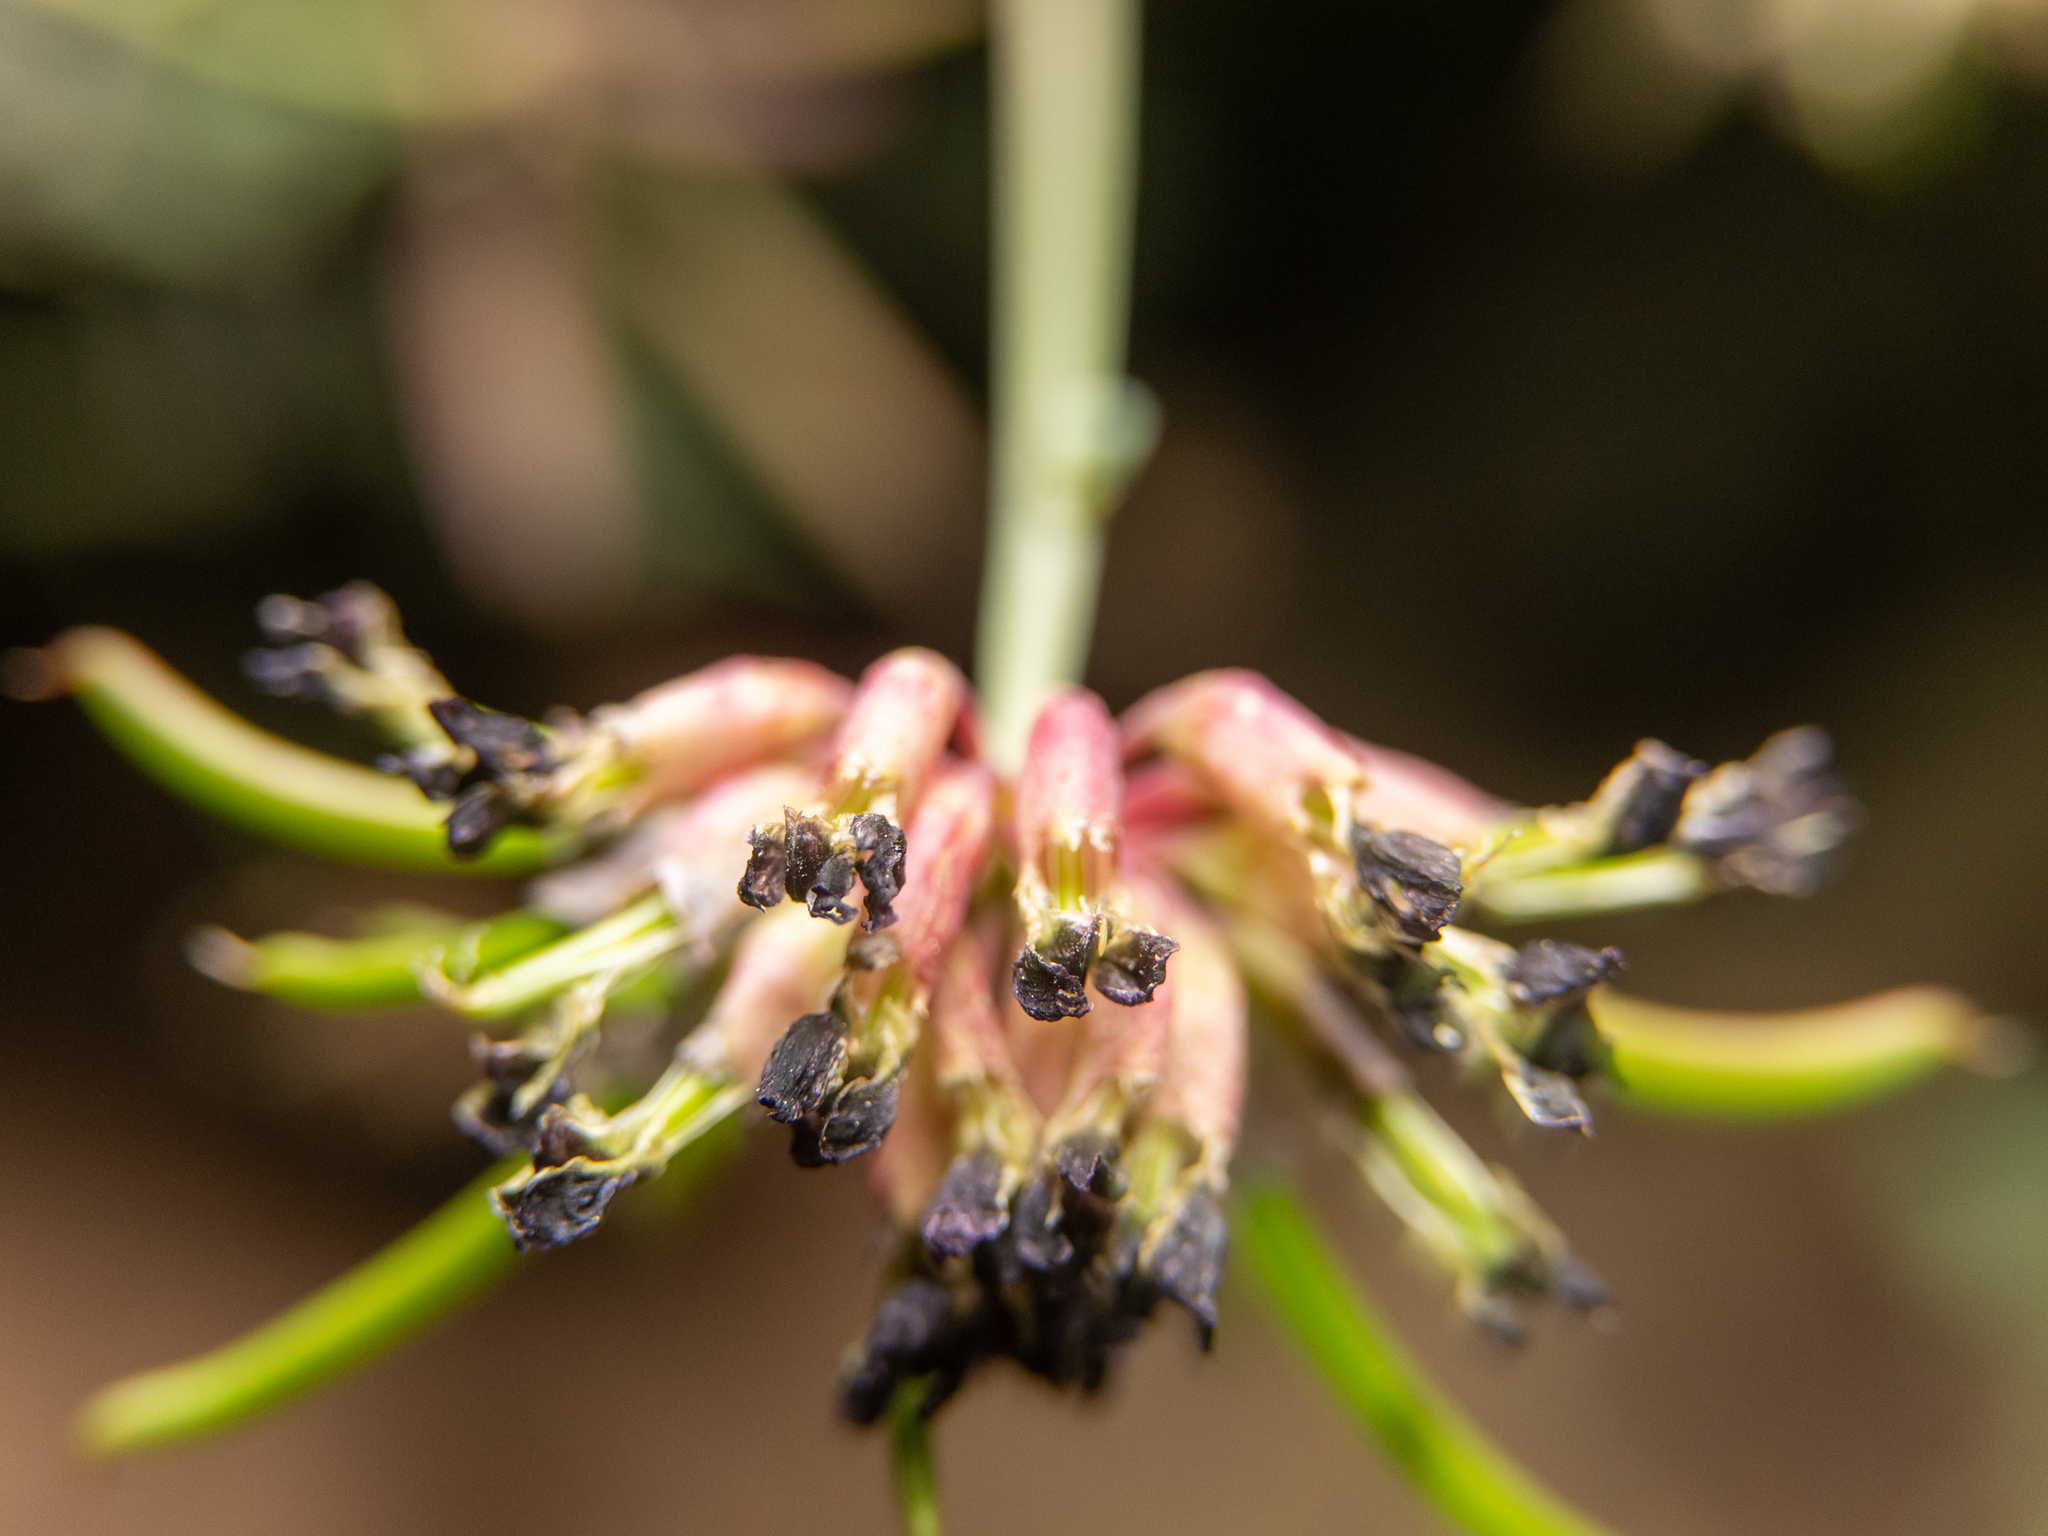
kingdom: Plantae
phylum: Tracheophyta
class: Magnoliopsida
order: Fabales
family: Fabaceae
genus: Hosackia
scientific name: Hosackia crassifolia
